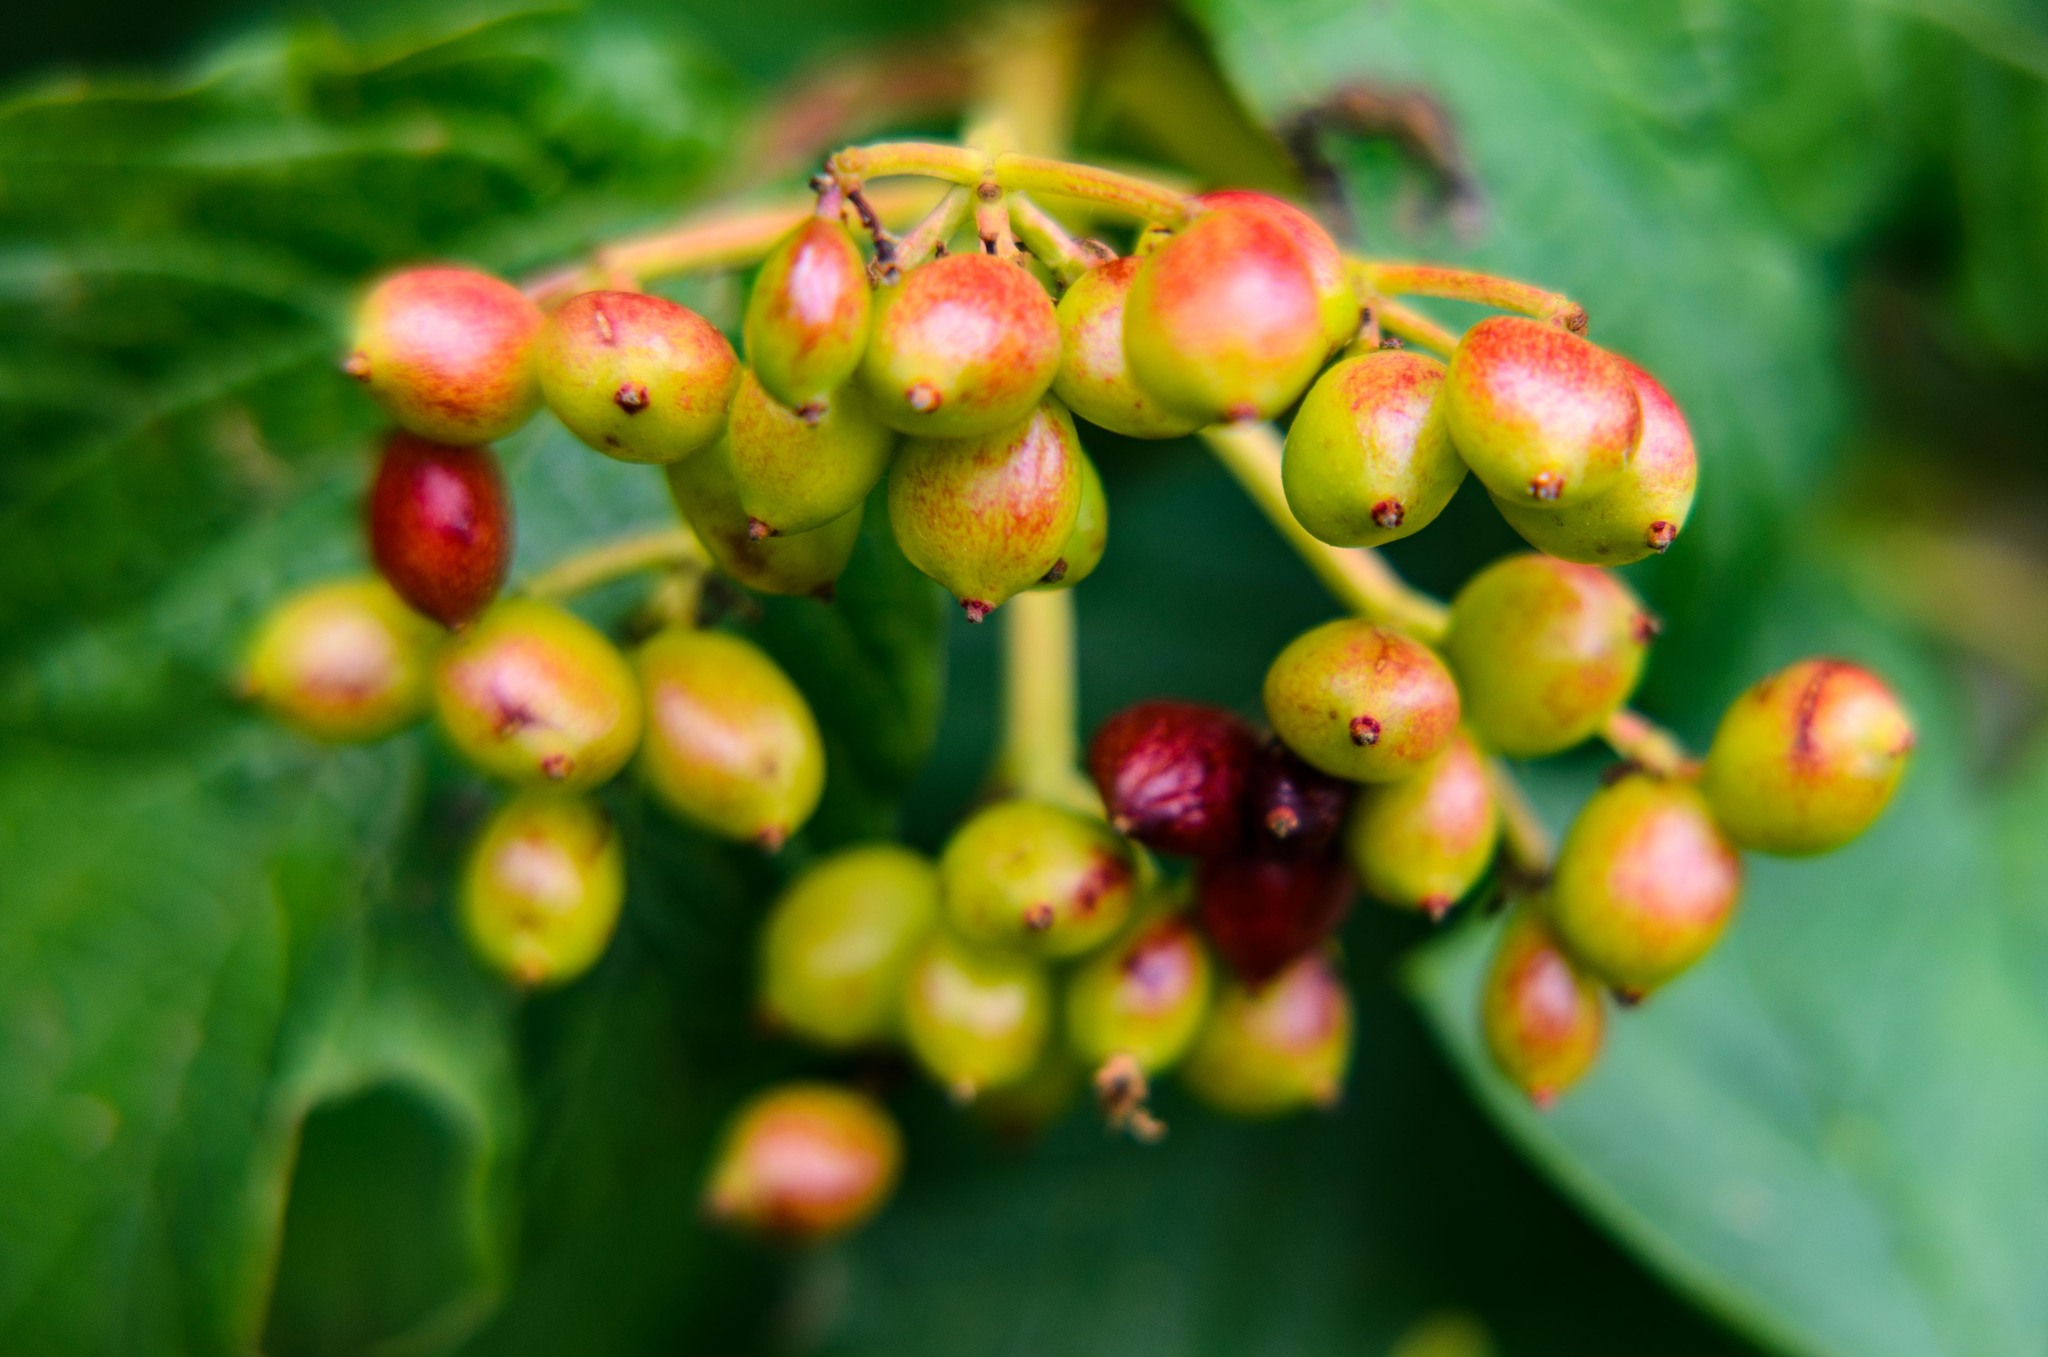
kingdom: Plantae
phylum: Tracheophyta
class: Magnoliopsida
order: Dipsacales
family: Viburnaceae
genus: Viburnum
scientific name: Viburnum opulus
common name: Guelder-rose
